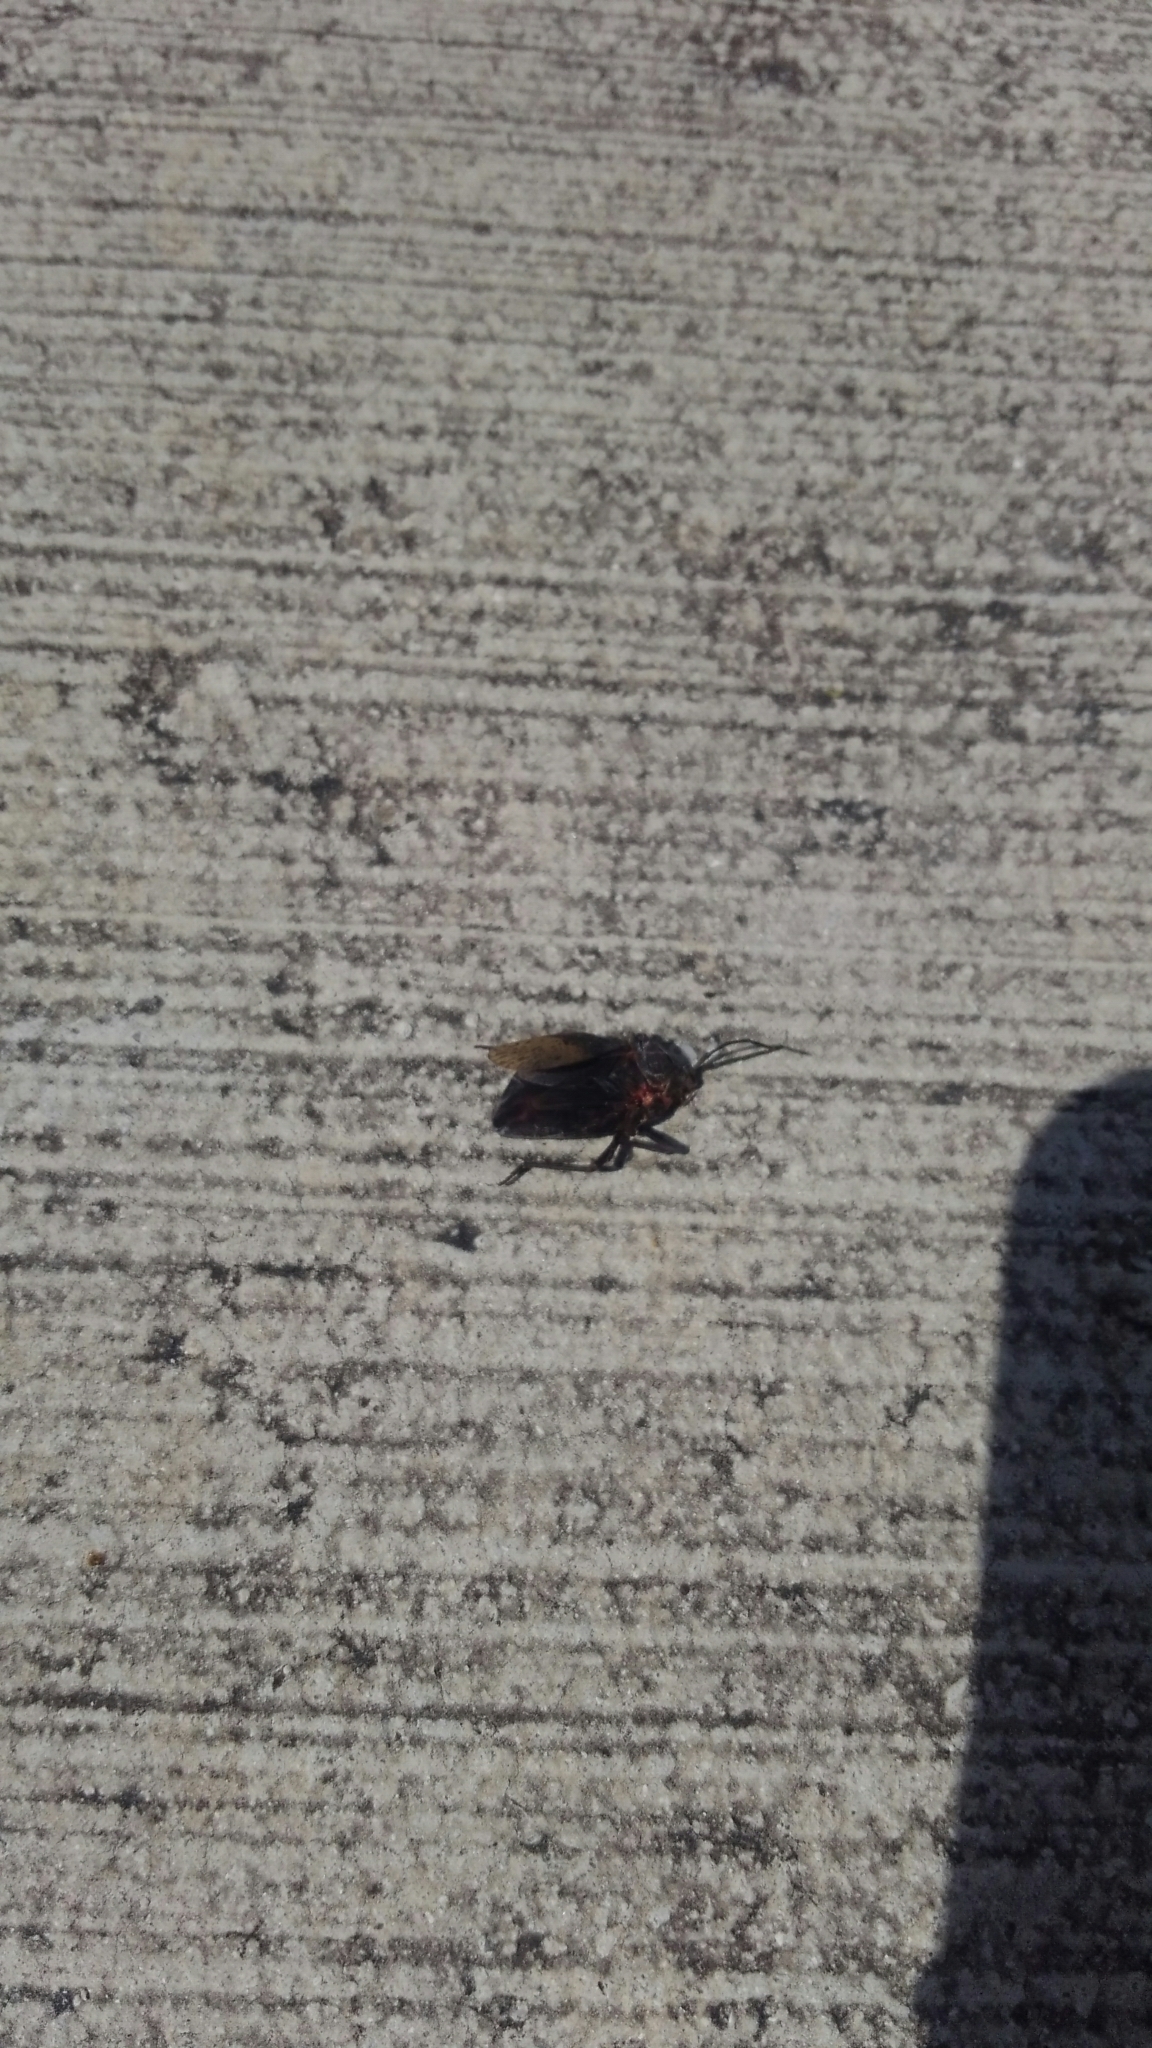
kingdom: Animalia
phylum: Arthropoda
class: Insecta
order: Hemiptera
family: Coreidae
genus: Spartocera
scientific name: Spartocera batatas
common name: Giant sweetpotato bug
